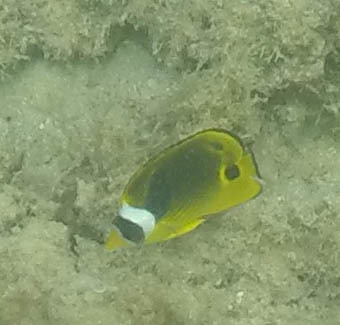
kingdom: Animalia
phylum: Chordata
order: Perciformes
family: Chaetodontidae
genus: Chaetodon
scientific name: Chaetodon lunula
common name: Raccoon butterflyfish
